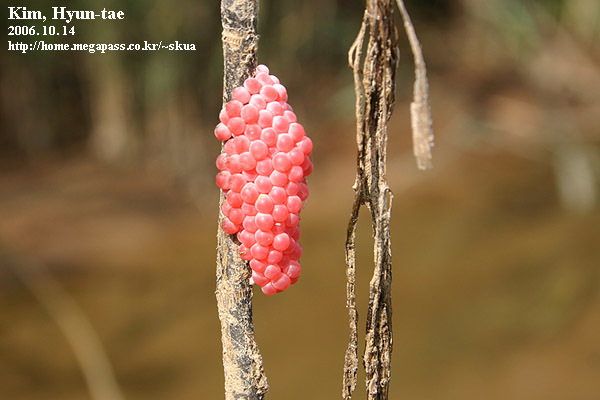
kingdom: Animalia
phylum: Mollusca
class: Gastropoda
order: Architaenioglossa
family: Ampullariidae
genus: Pomacea
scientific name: Pomacea canaliculata
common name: Channeled applesnail
